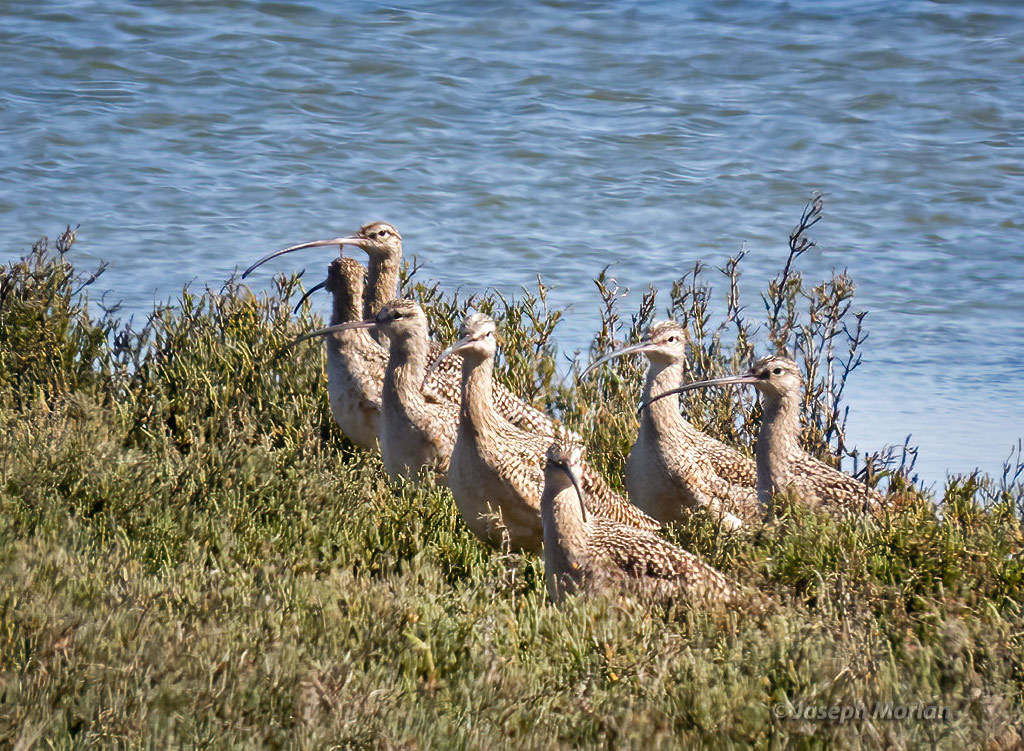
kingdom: Animalia
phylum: Chordata
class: Aves
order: Charadriiformes
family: Scolopacidae
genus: Numenius
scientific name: Numenius americanus
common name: Long-billed curlew
